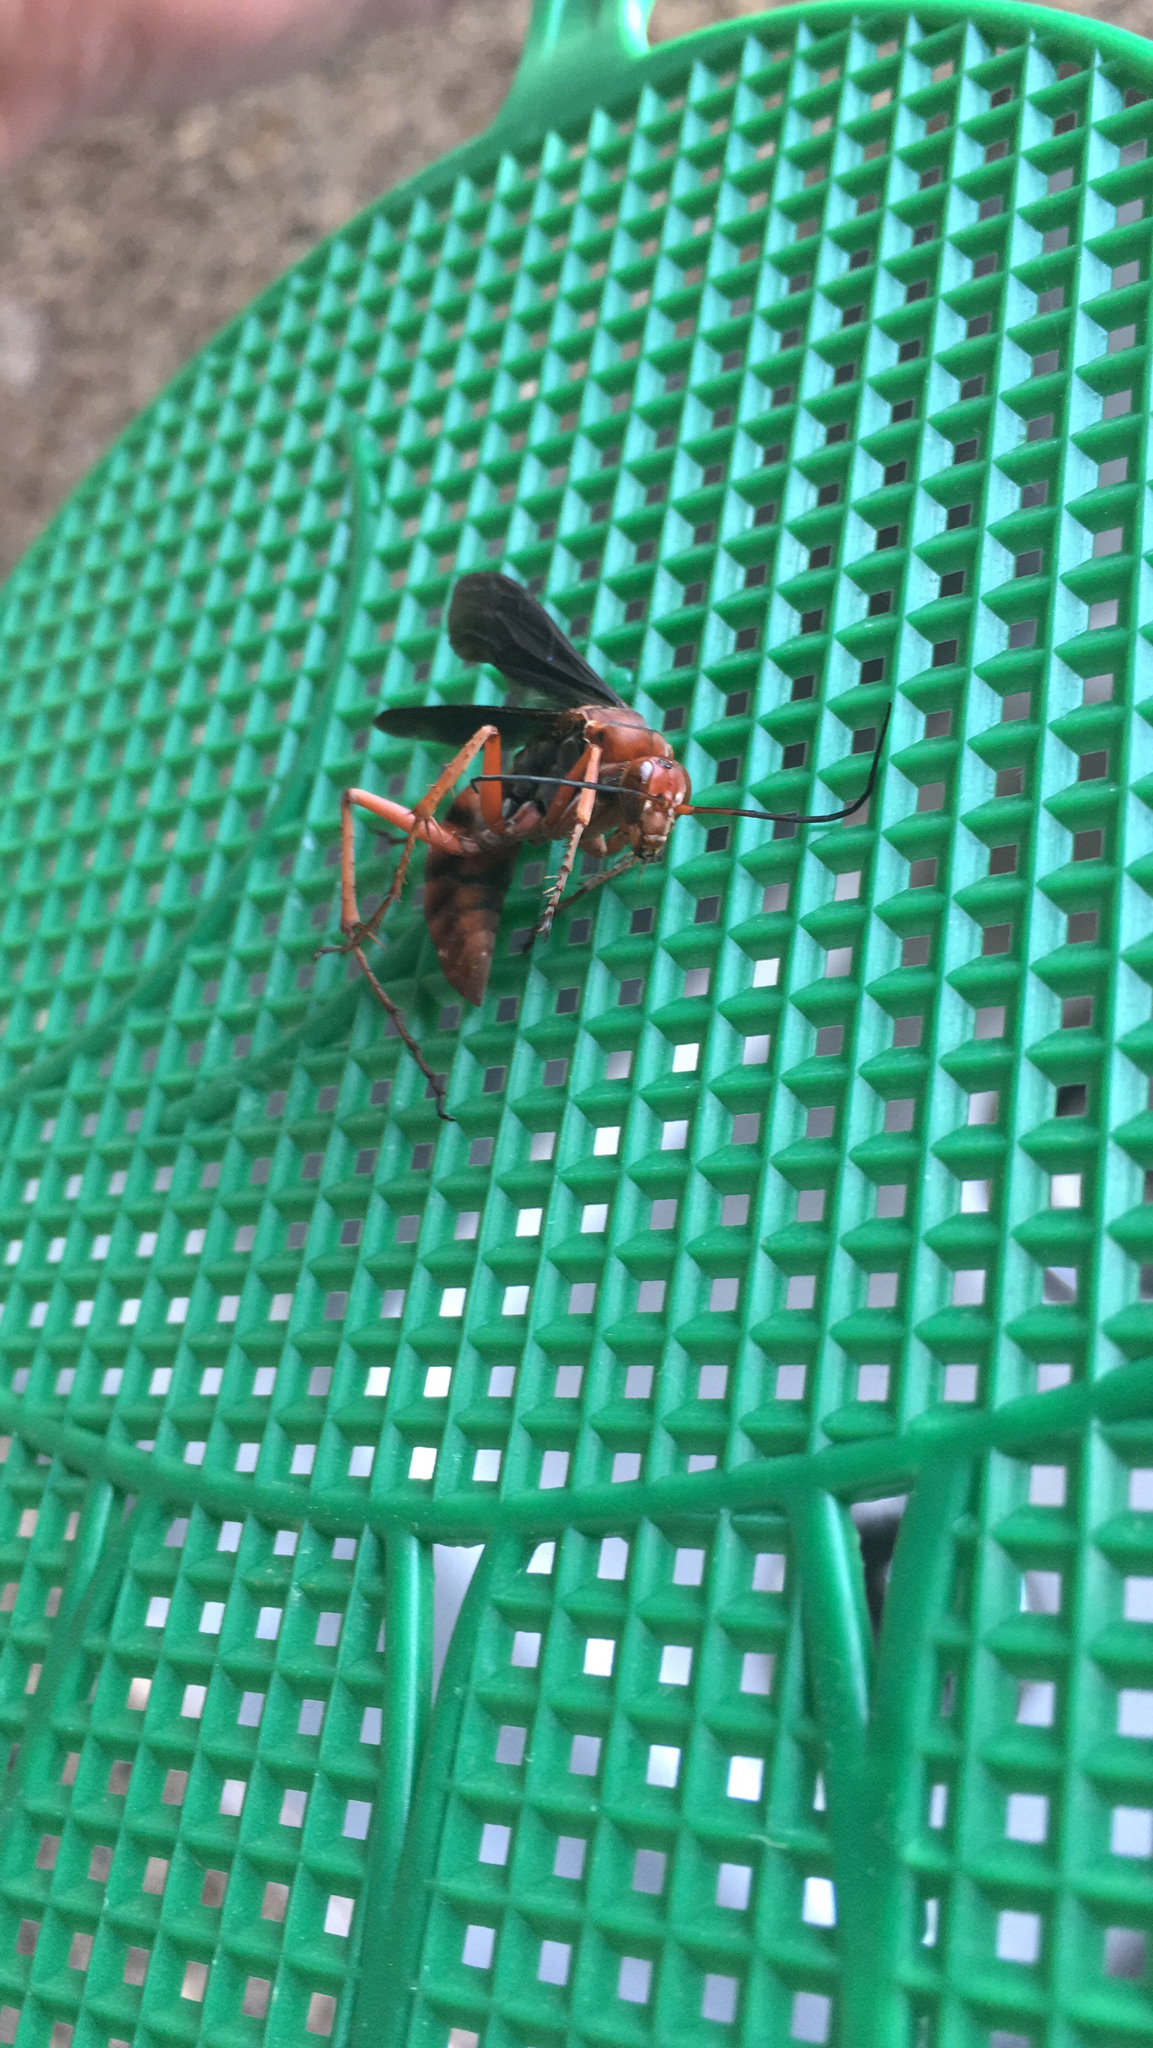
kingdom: Animalia
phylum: Arthropoda
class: Insecta
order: Hymenoptera
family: Pompilidae
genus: Tachypompilus
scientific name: Tachypompilus ferrugineus
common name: Rusty spider wasp
